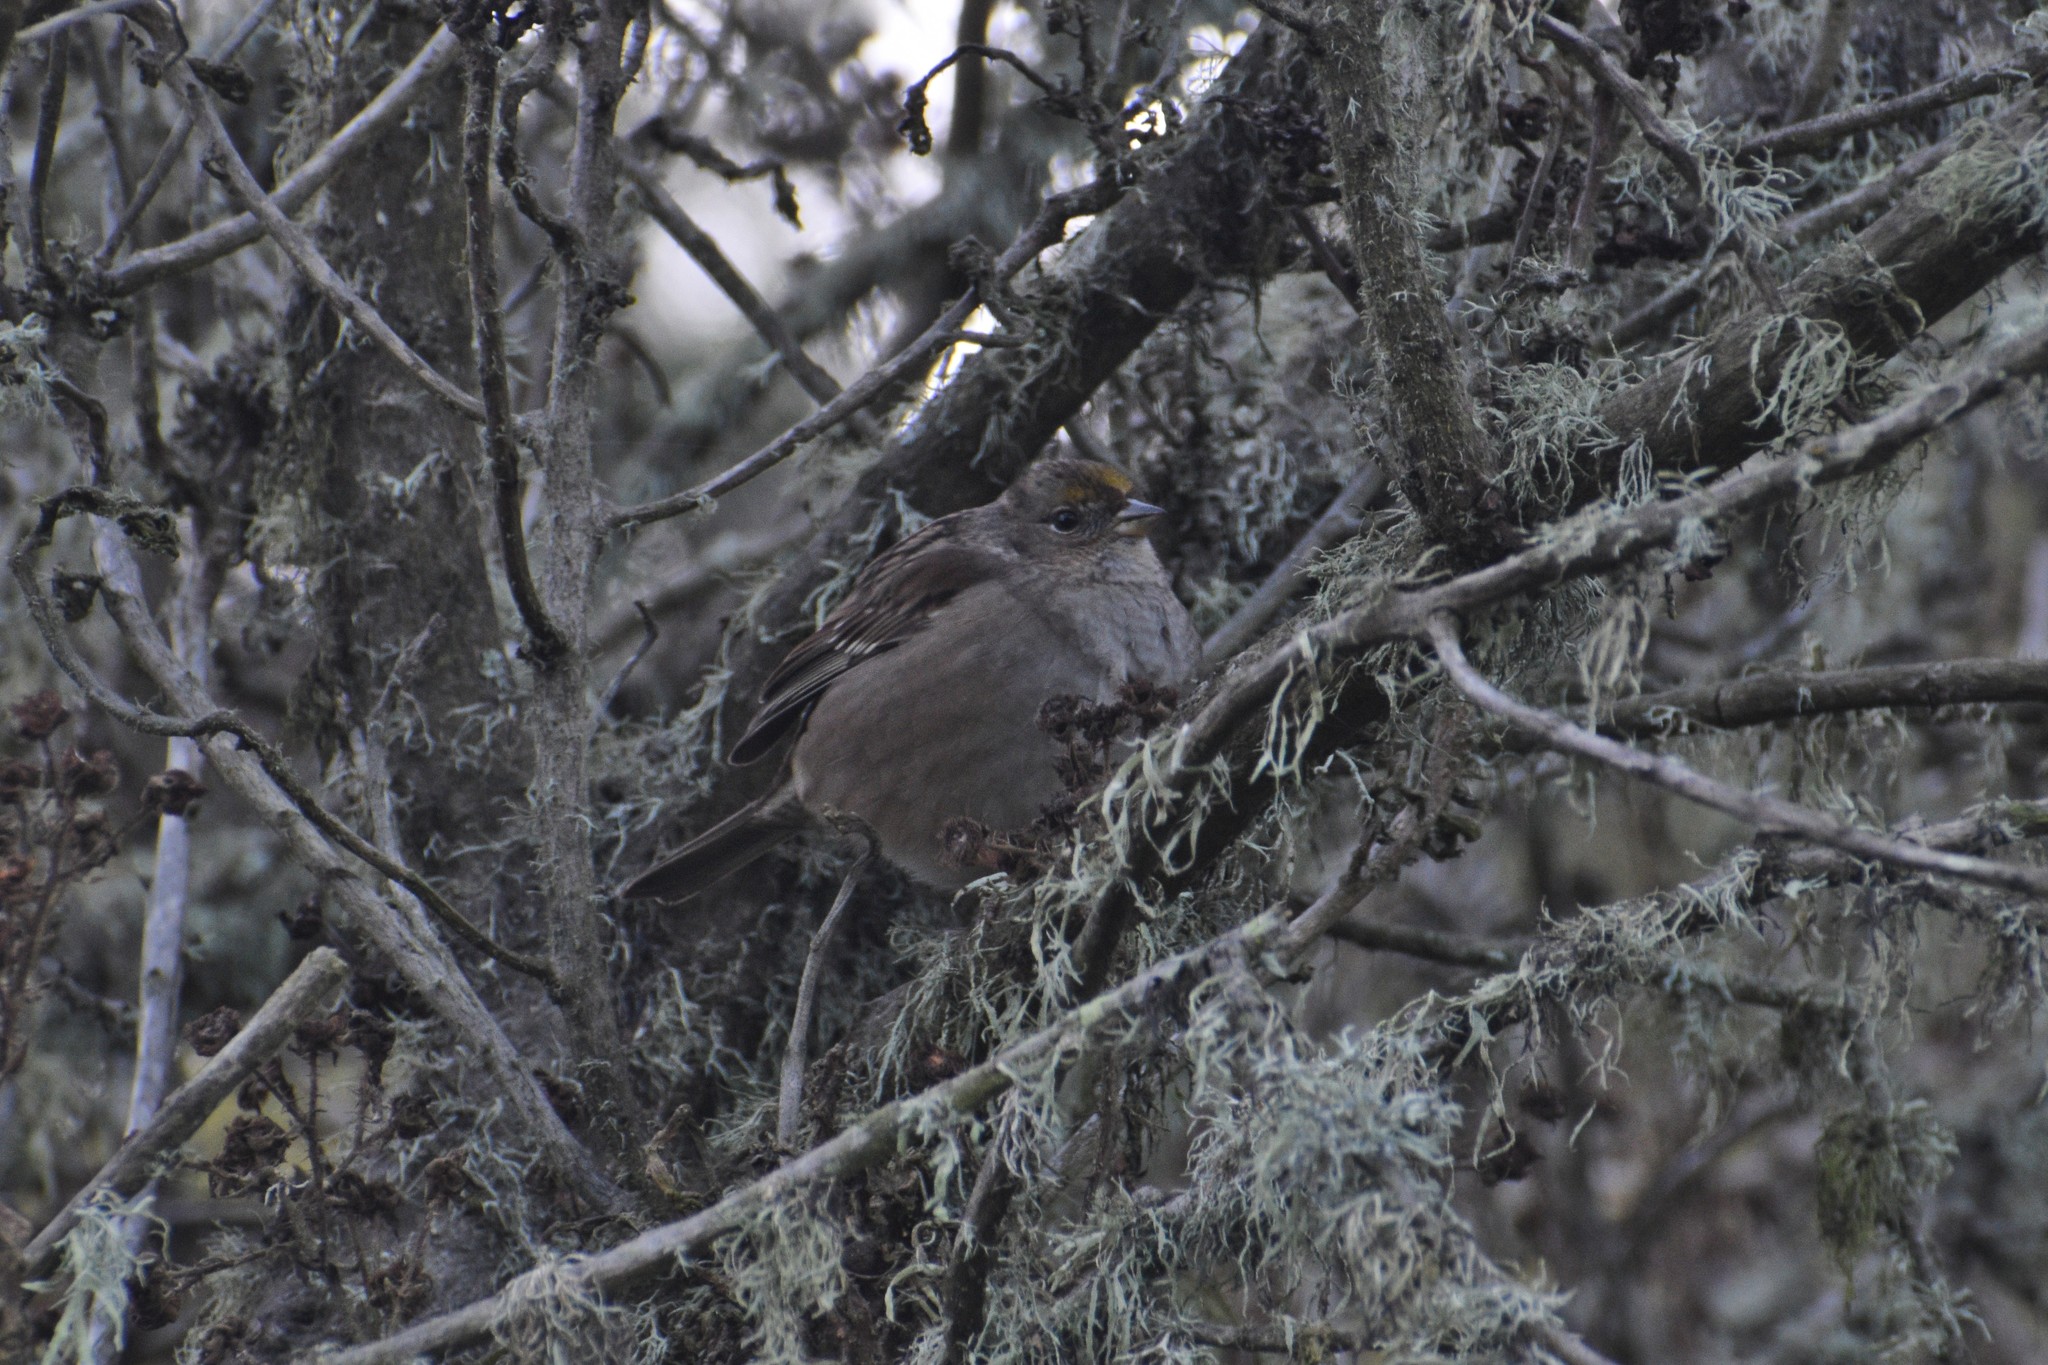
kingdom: Animalia
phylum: Chordata
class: Aves
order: Passeriformes
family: Passerellidae
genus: Zonotrichia
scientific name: Zonotrichia atricapilla
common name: Golden-crowned sparrow
